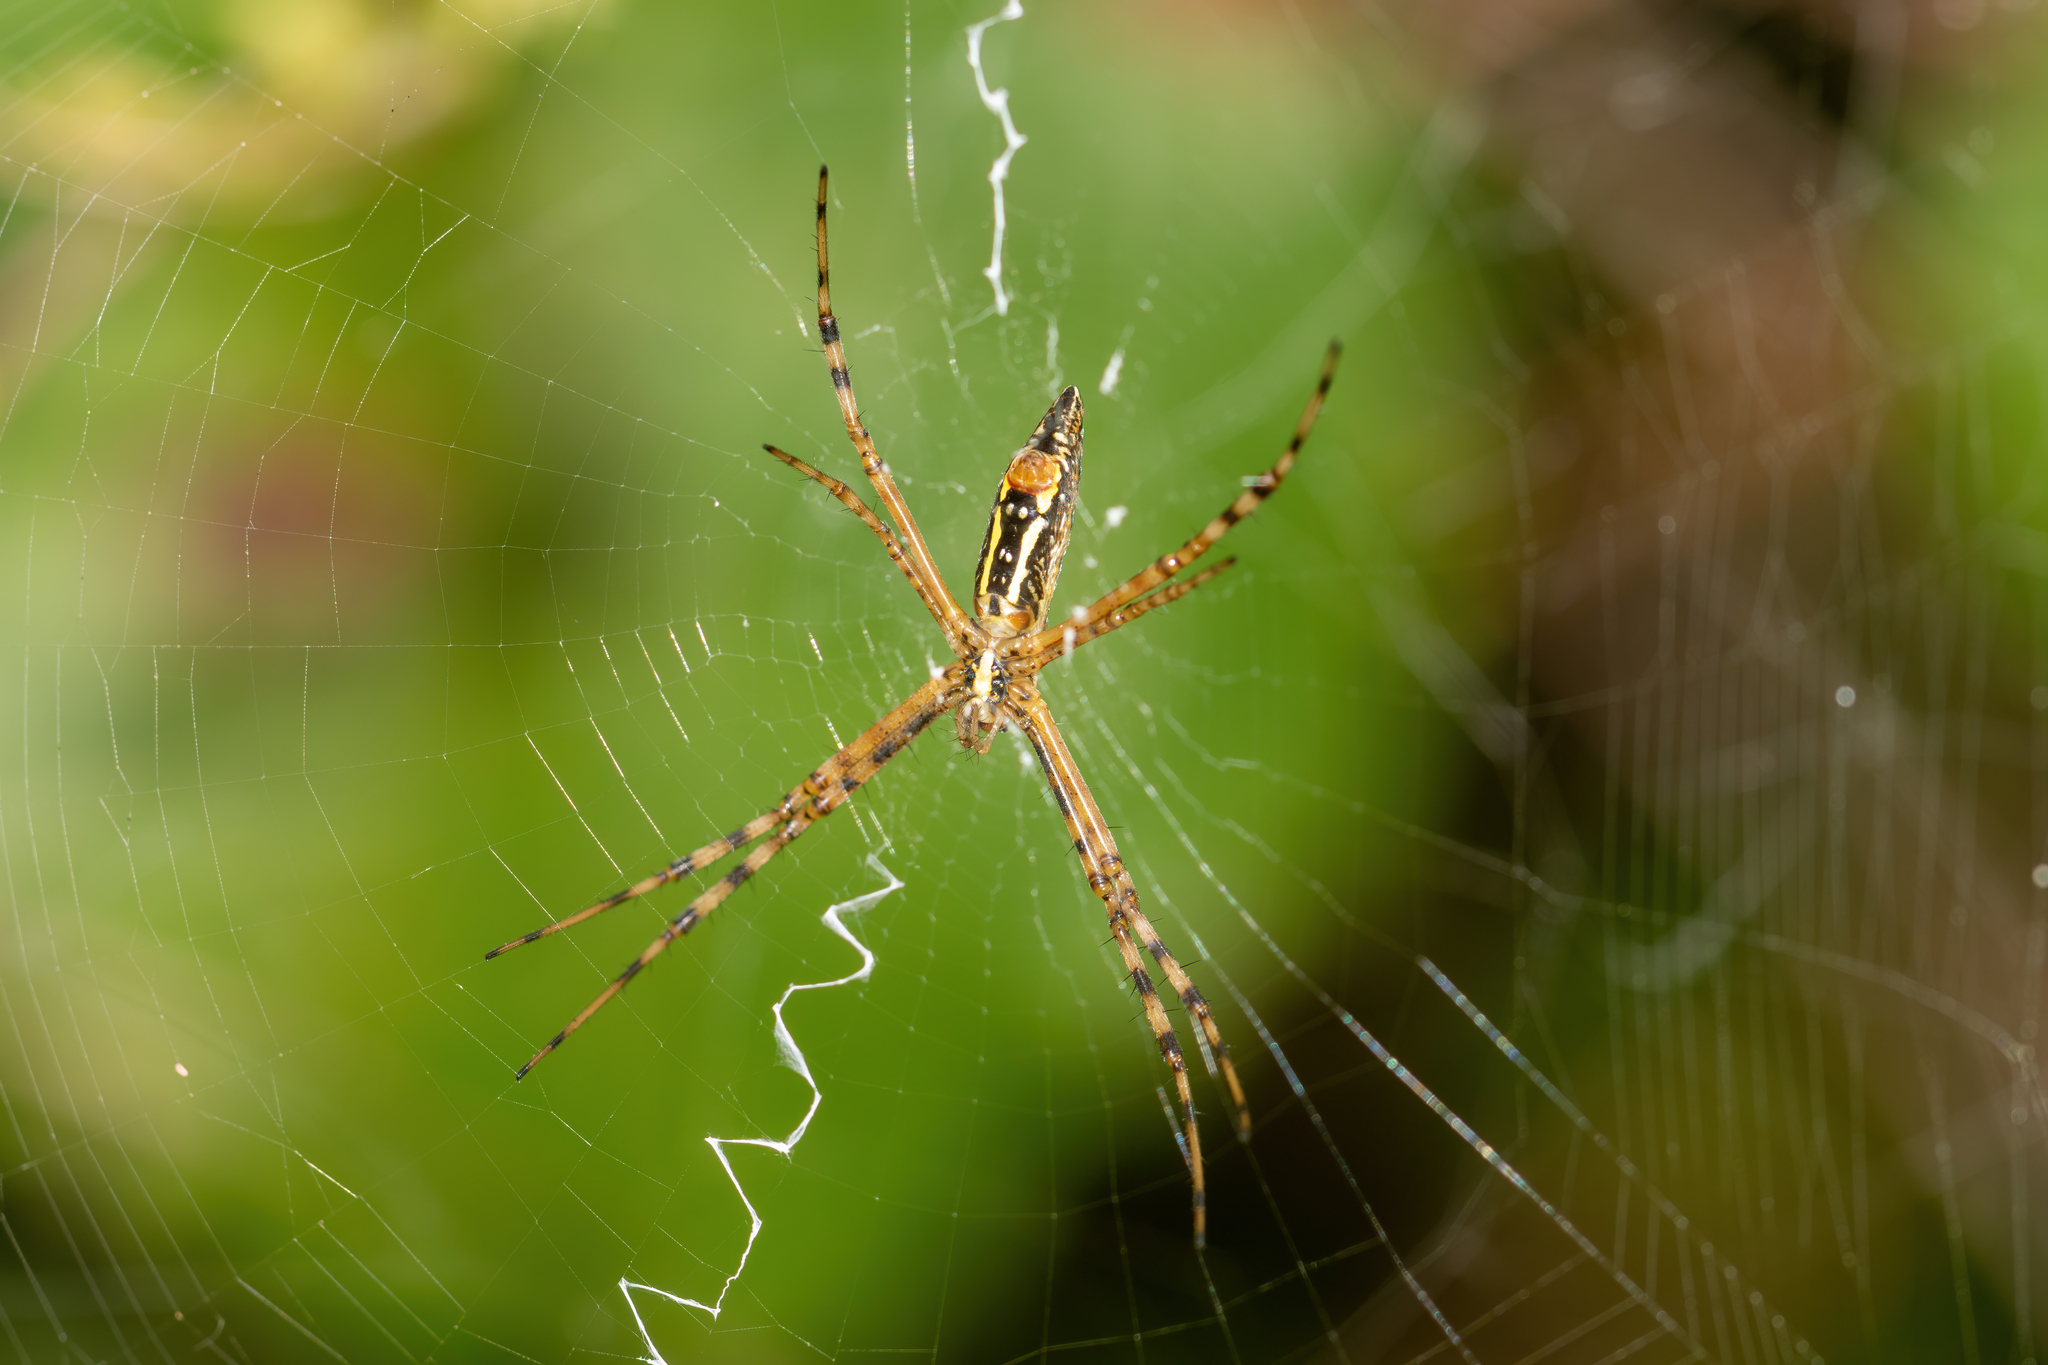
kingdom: Animalia
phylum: Arthropoda
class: Arachnida
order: Araneae
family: Araneidae
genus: Argiope
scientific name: Argiope trifasciata
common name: Banded garden spider
